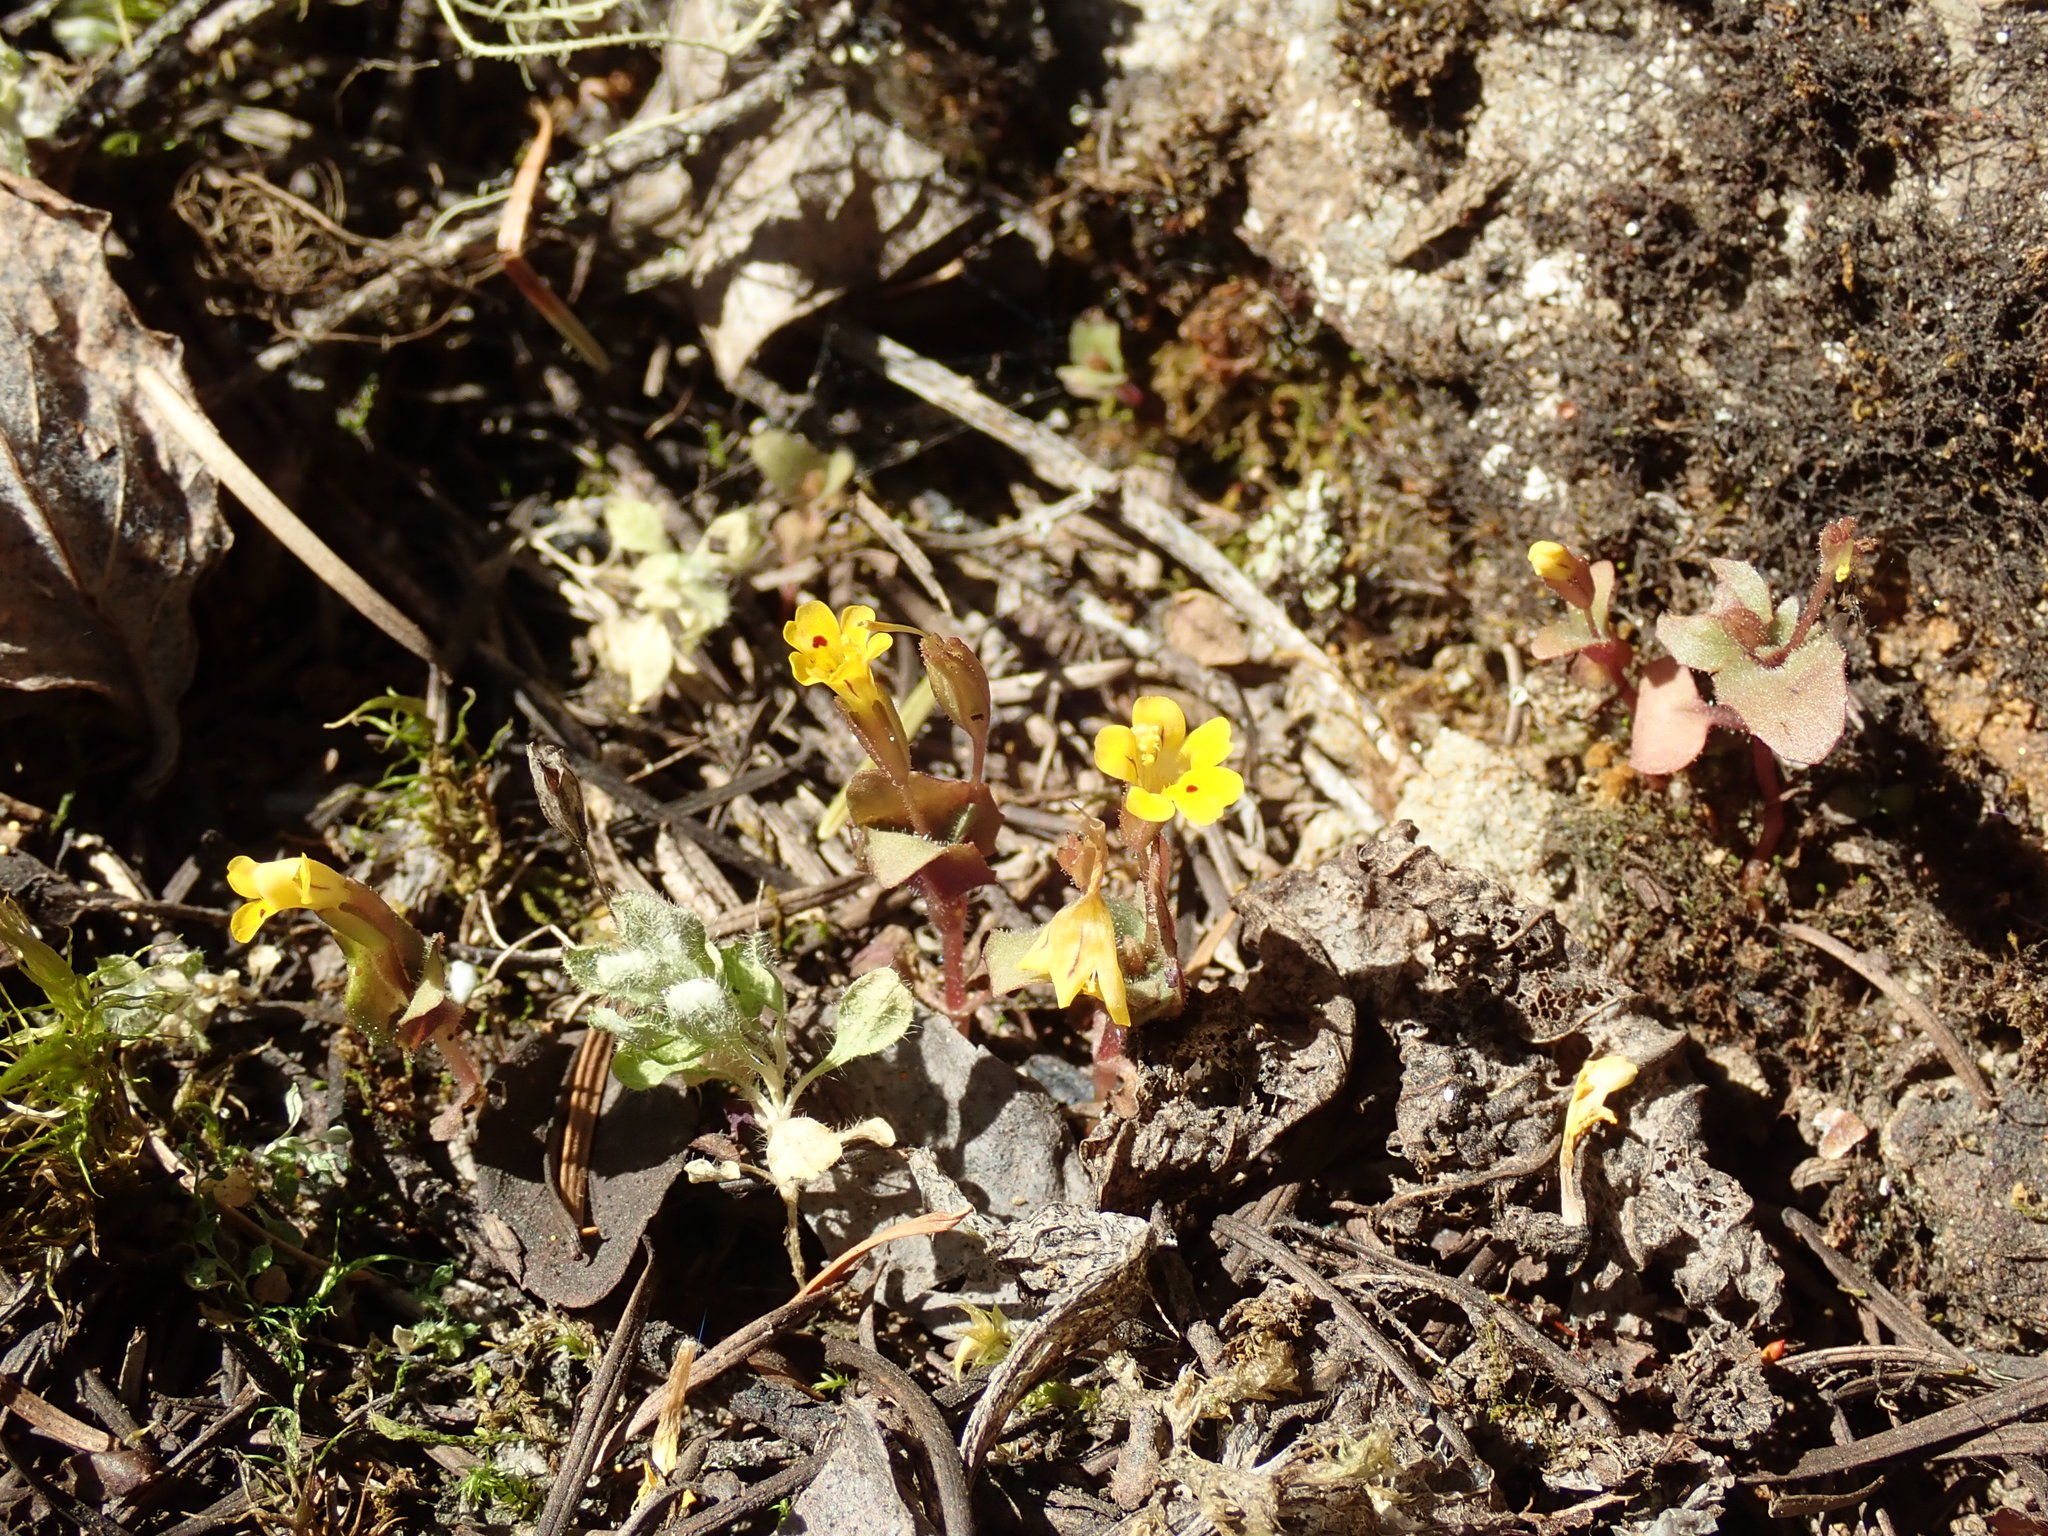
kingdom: Plantae
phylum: Tracheophyta
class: Magnoliopsida
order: Lamiales
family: Phrymaceae
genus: Erythranthe
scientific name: Erythranthe alsinoides
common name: Chickweed monkeyflower
